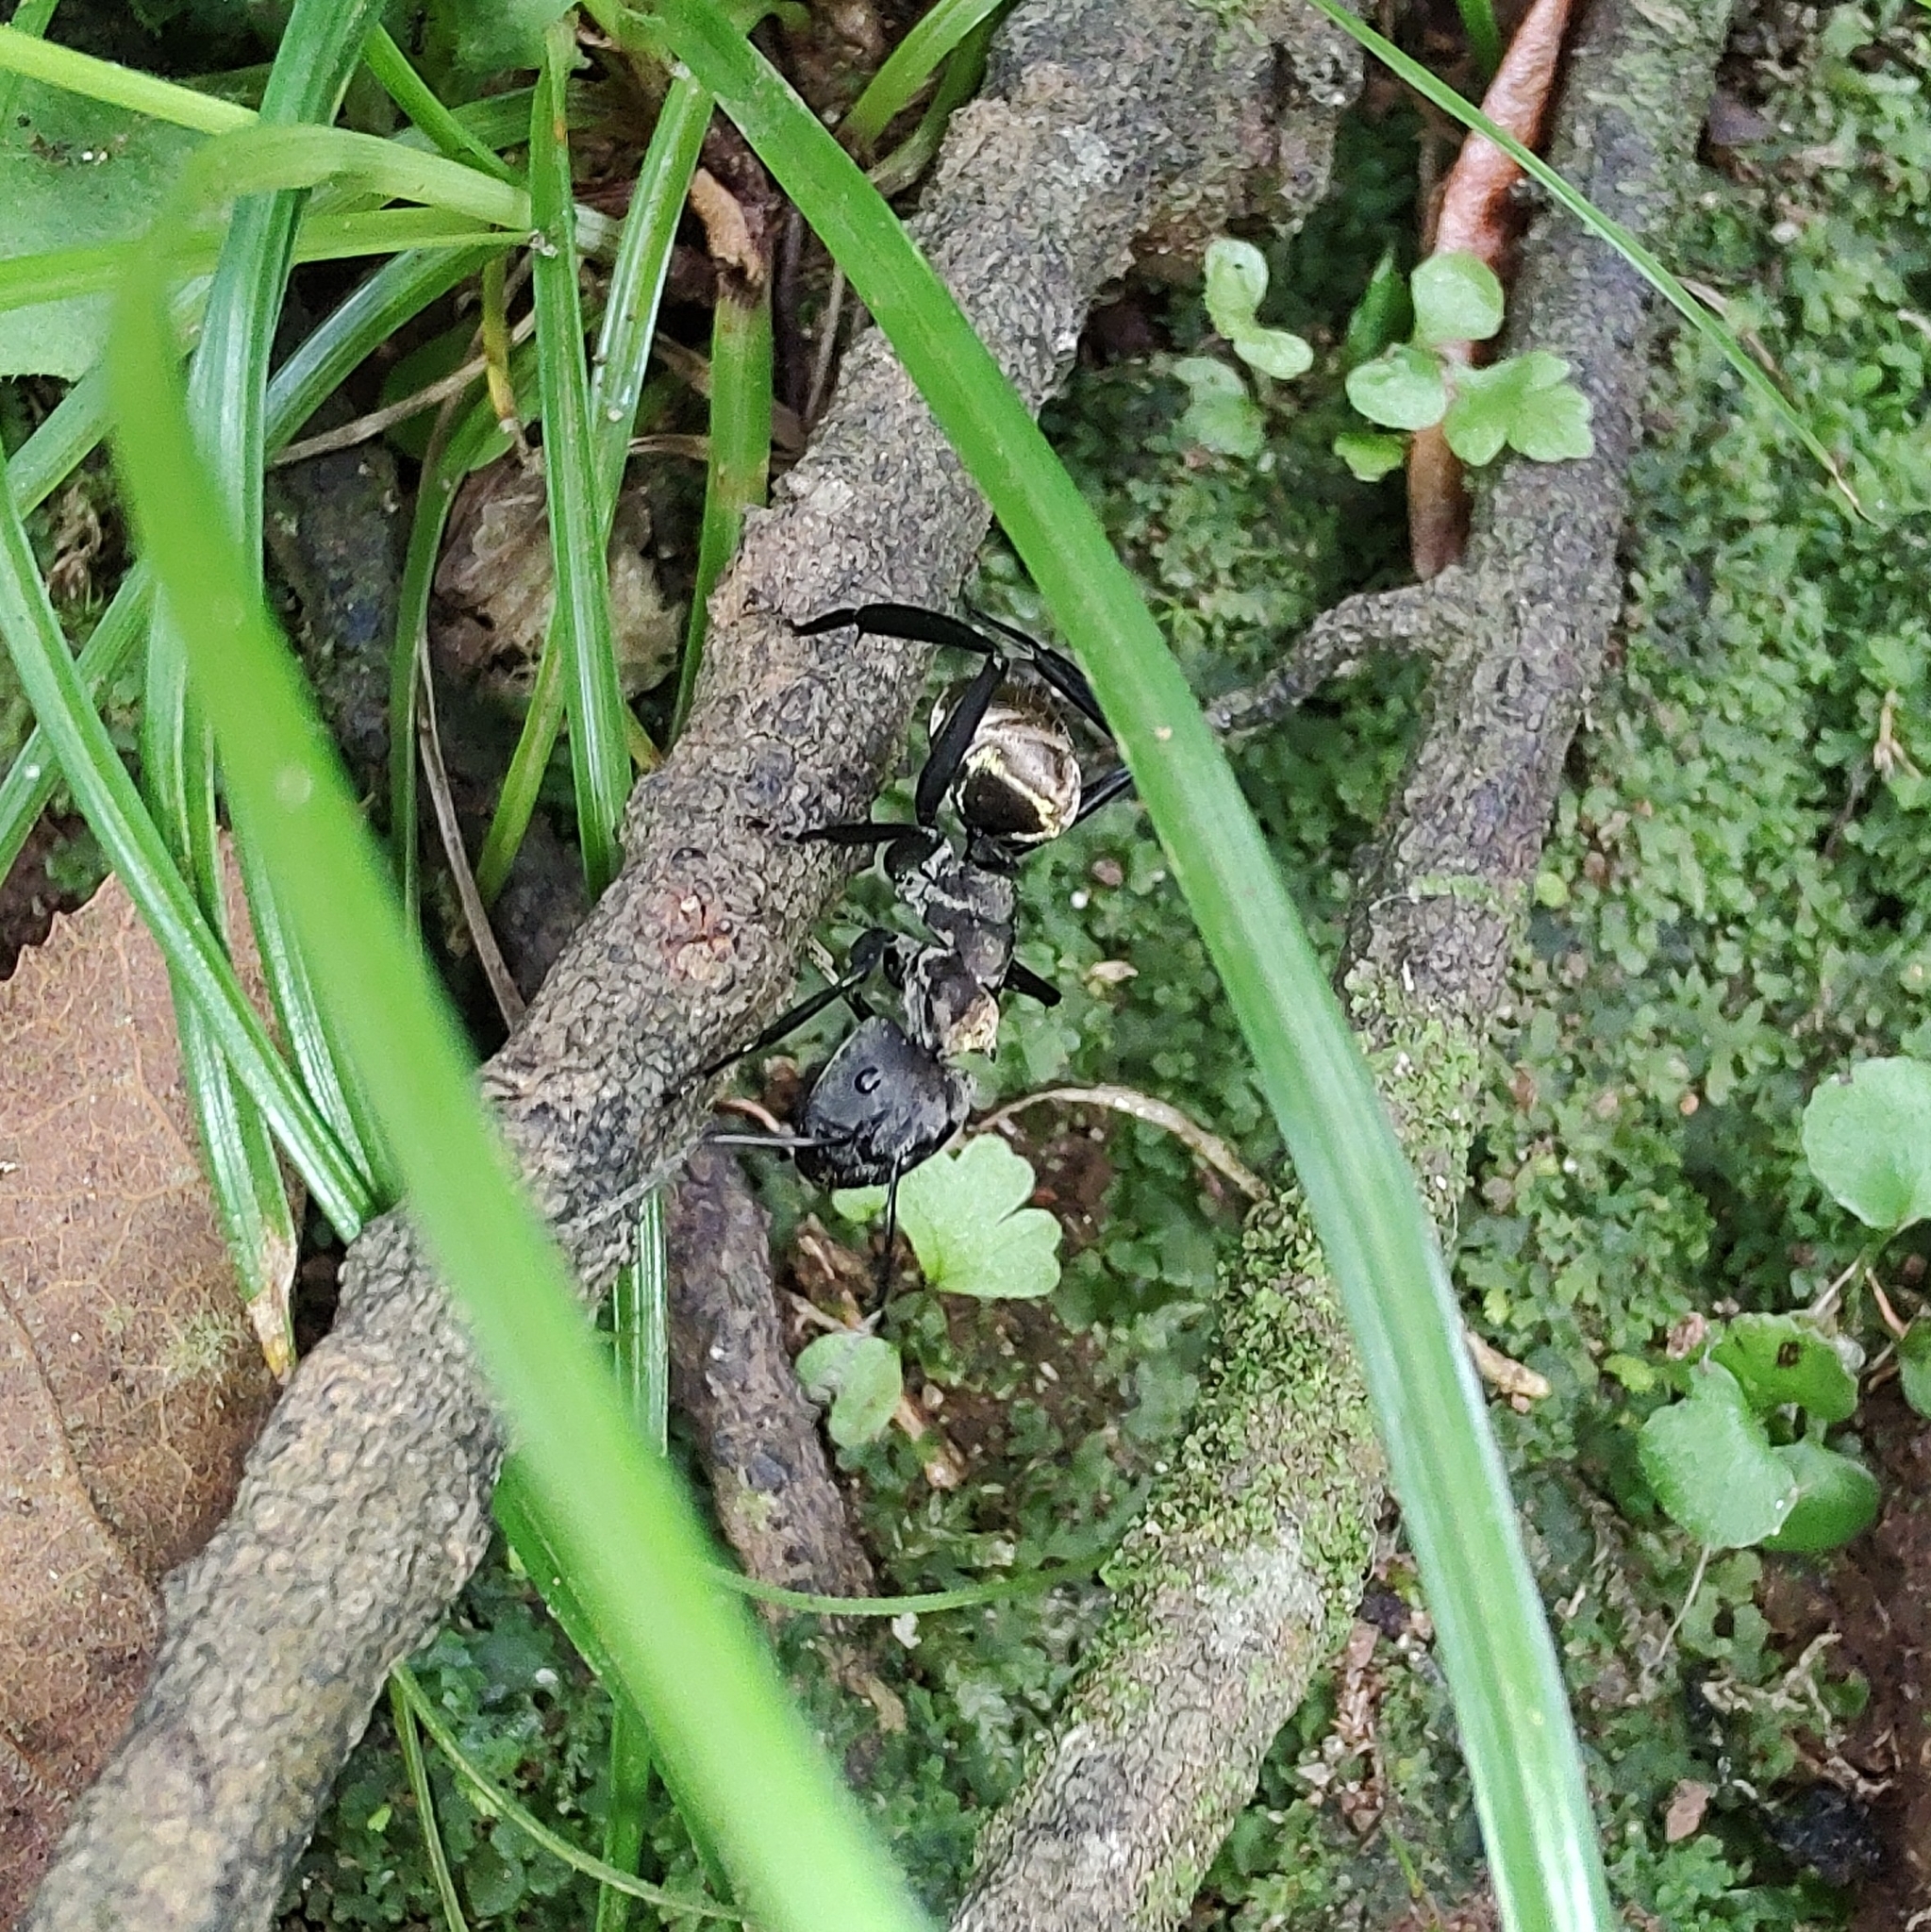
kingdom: Animalia
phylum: Arthropoda
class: Insecta
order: Hymenoptera
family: Formicidae
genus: Camponotus
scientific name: Camponotus sericeiventris
